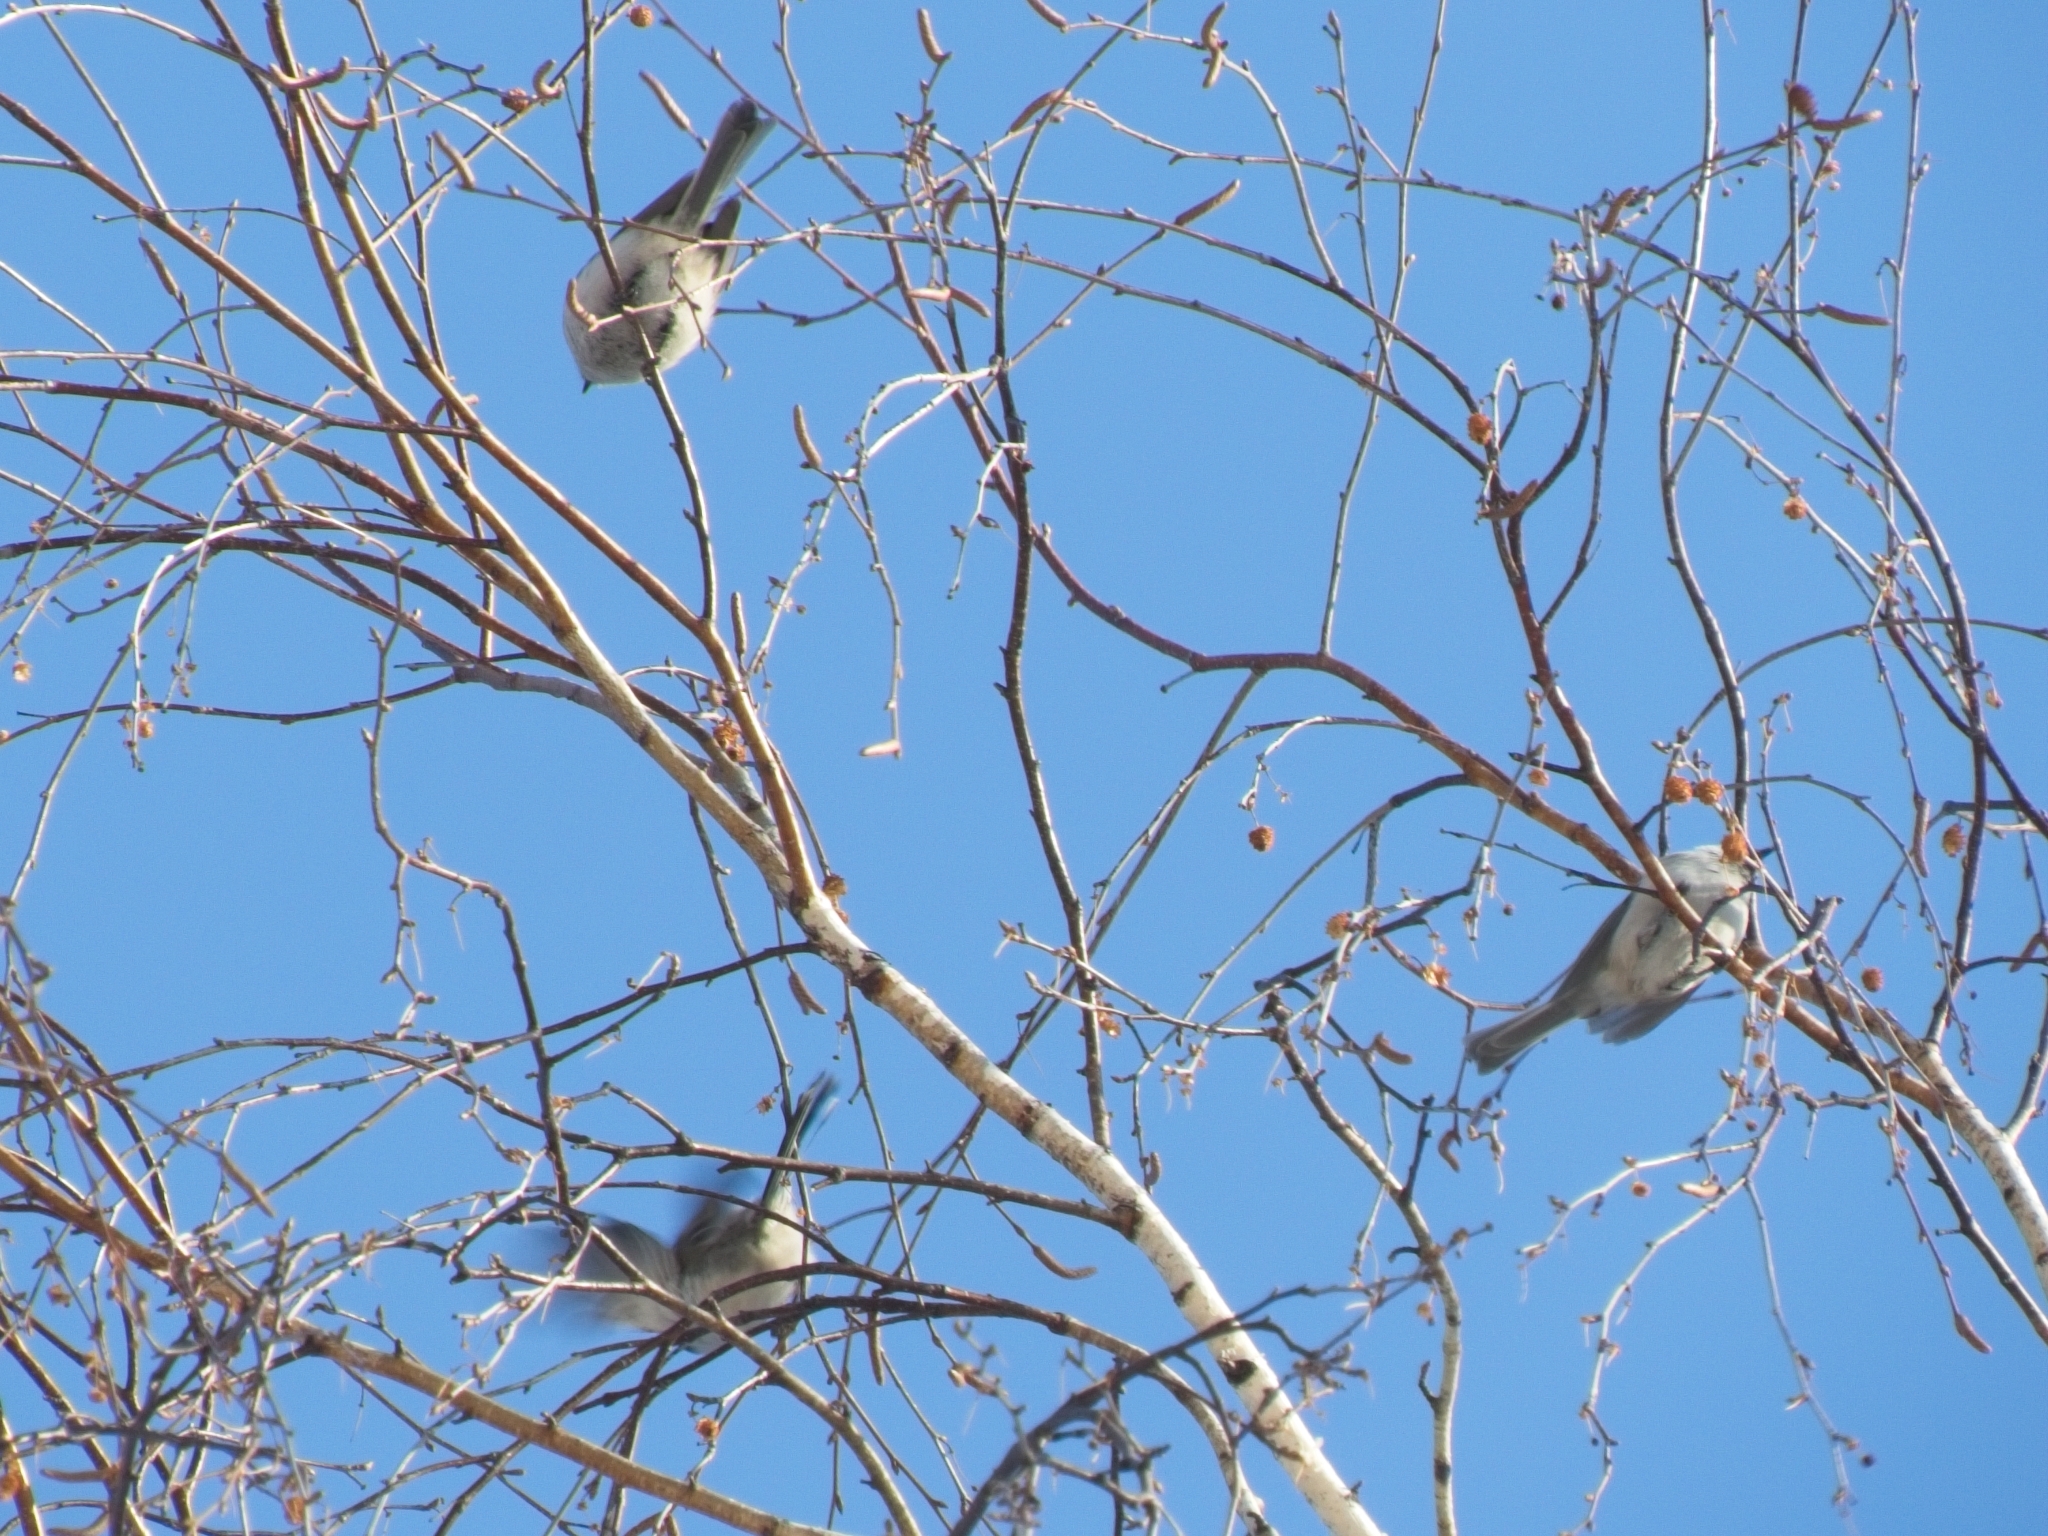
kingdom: Animalia
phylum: Chordata
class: Aves
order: Passeriformes
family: Paridae
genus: Poecile
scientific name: Poecile montanus
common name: Willow tit
